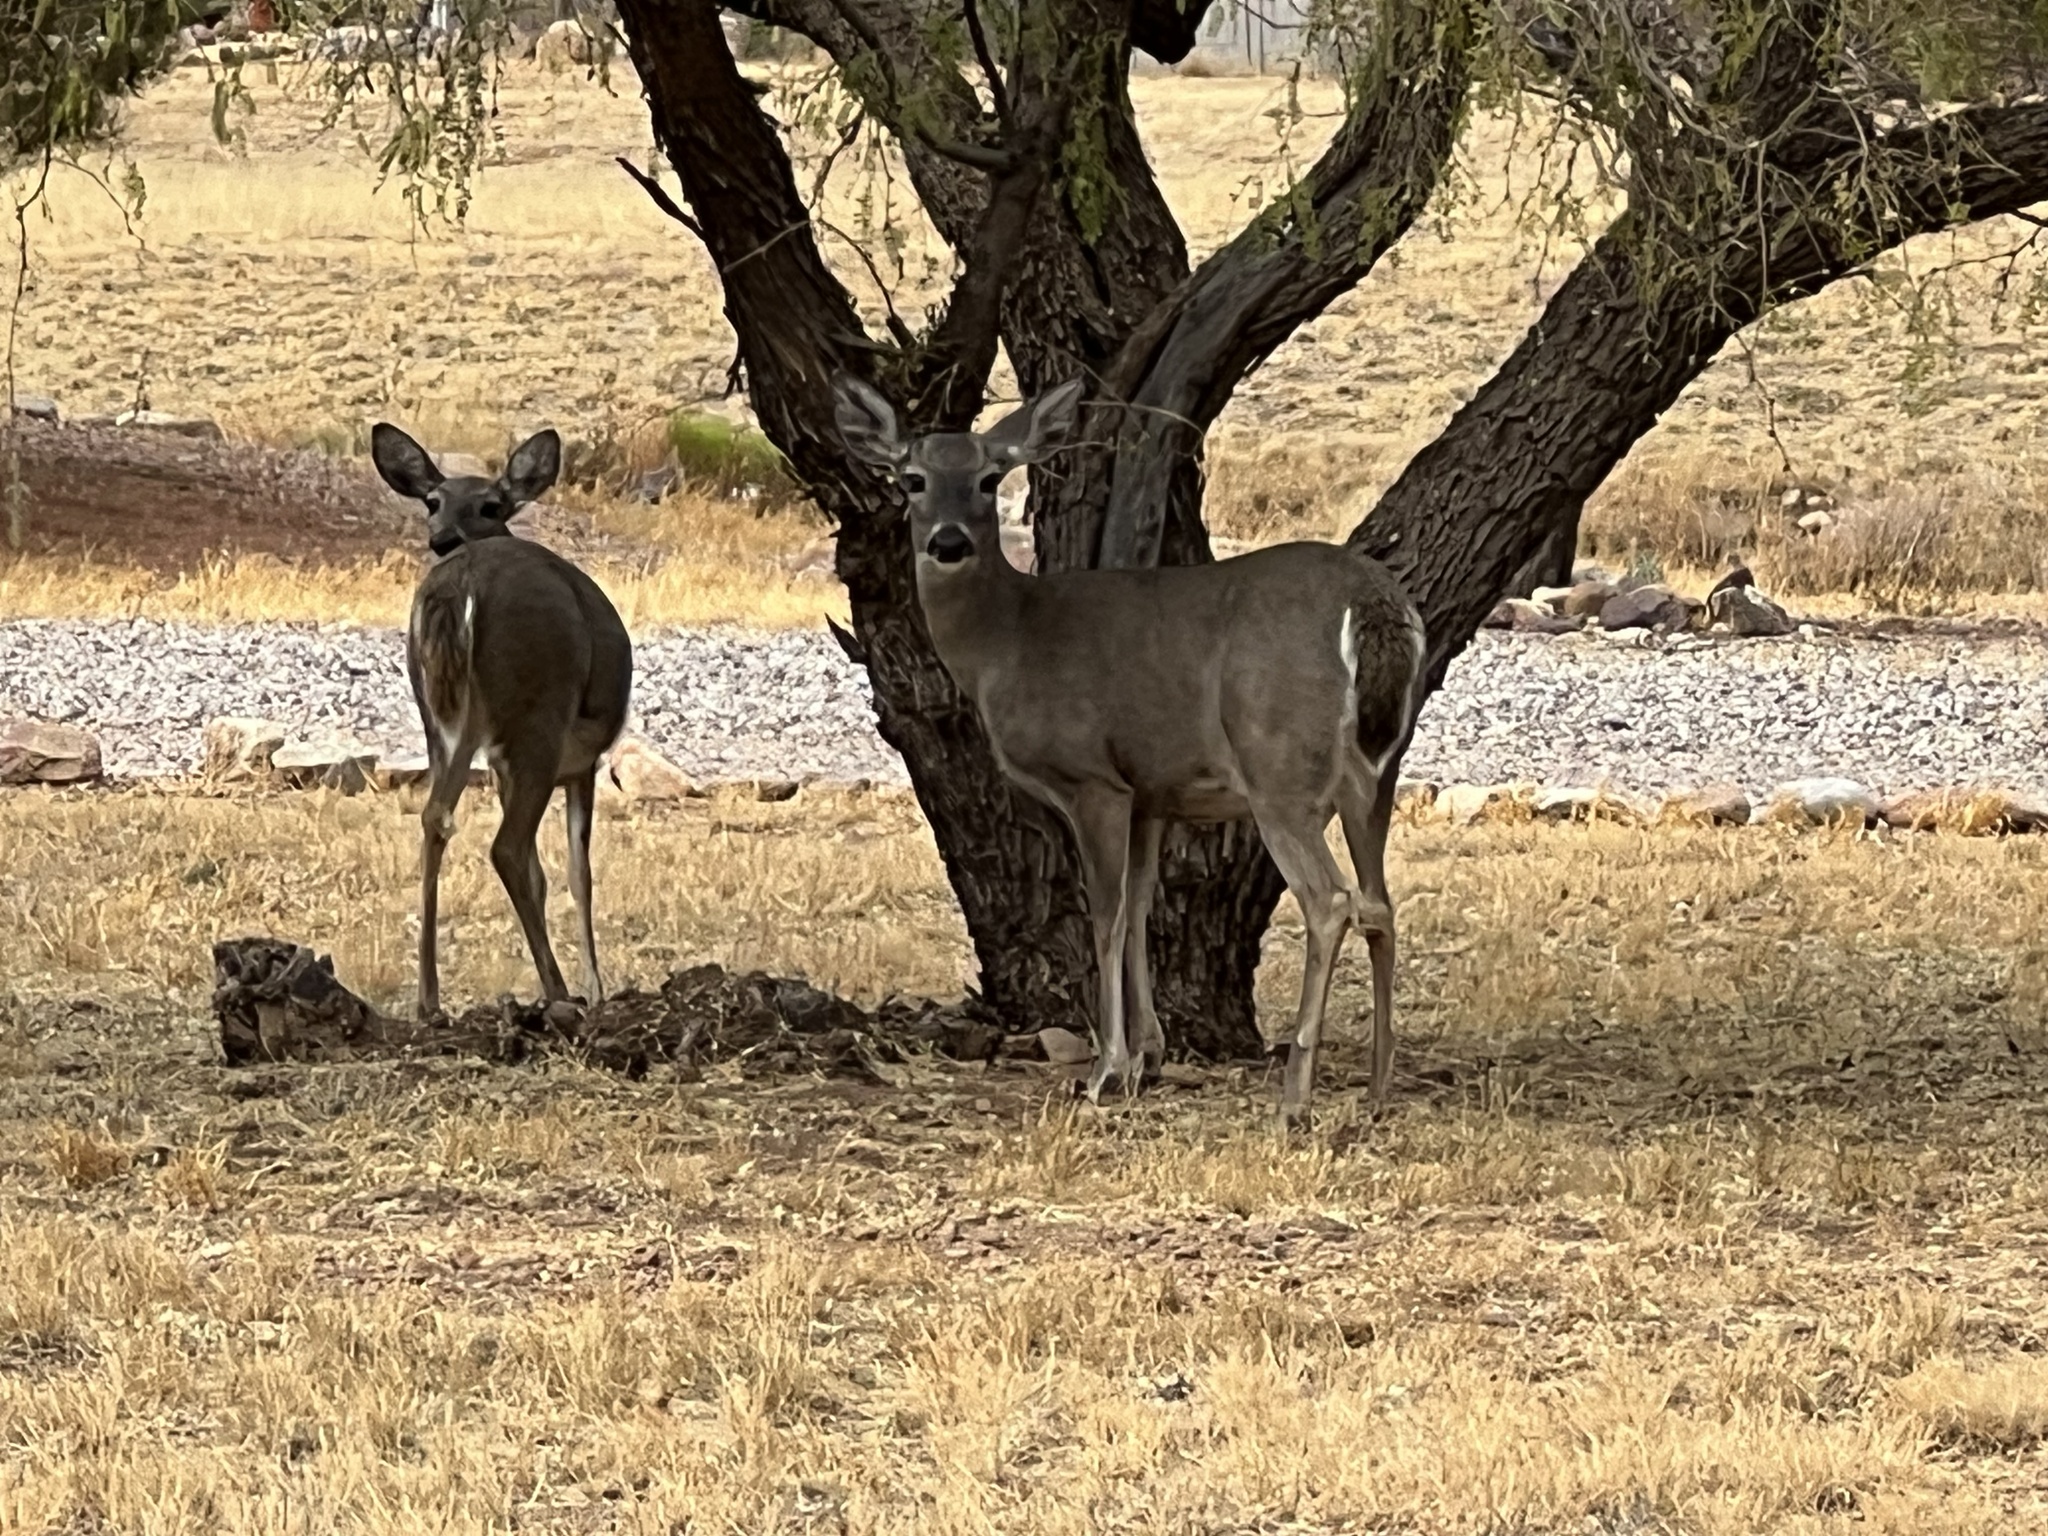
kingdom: Animalia
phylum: Chordata
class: Mammalia
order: Artiodactyla
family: Cervidae
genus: Odocoileus
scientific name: Odocoileus virginianus
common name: White-tailed deer
